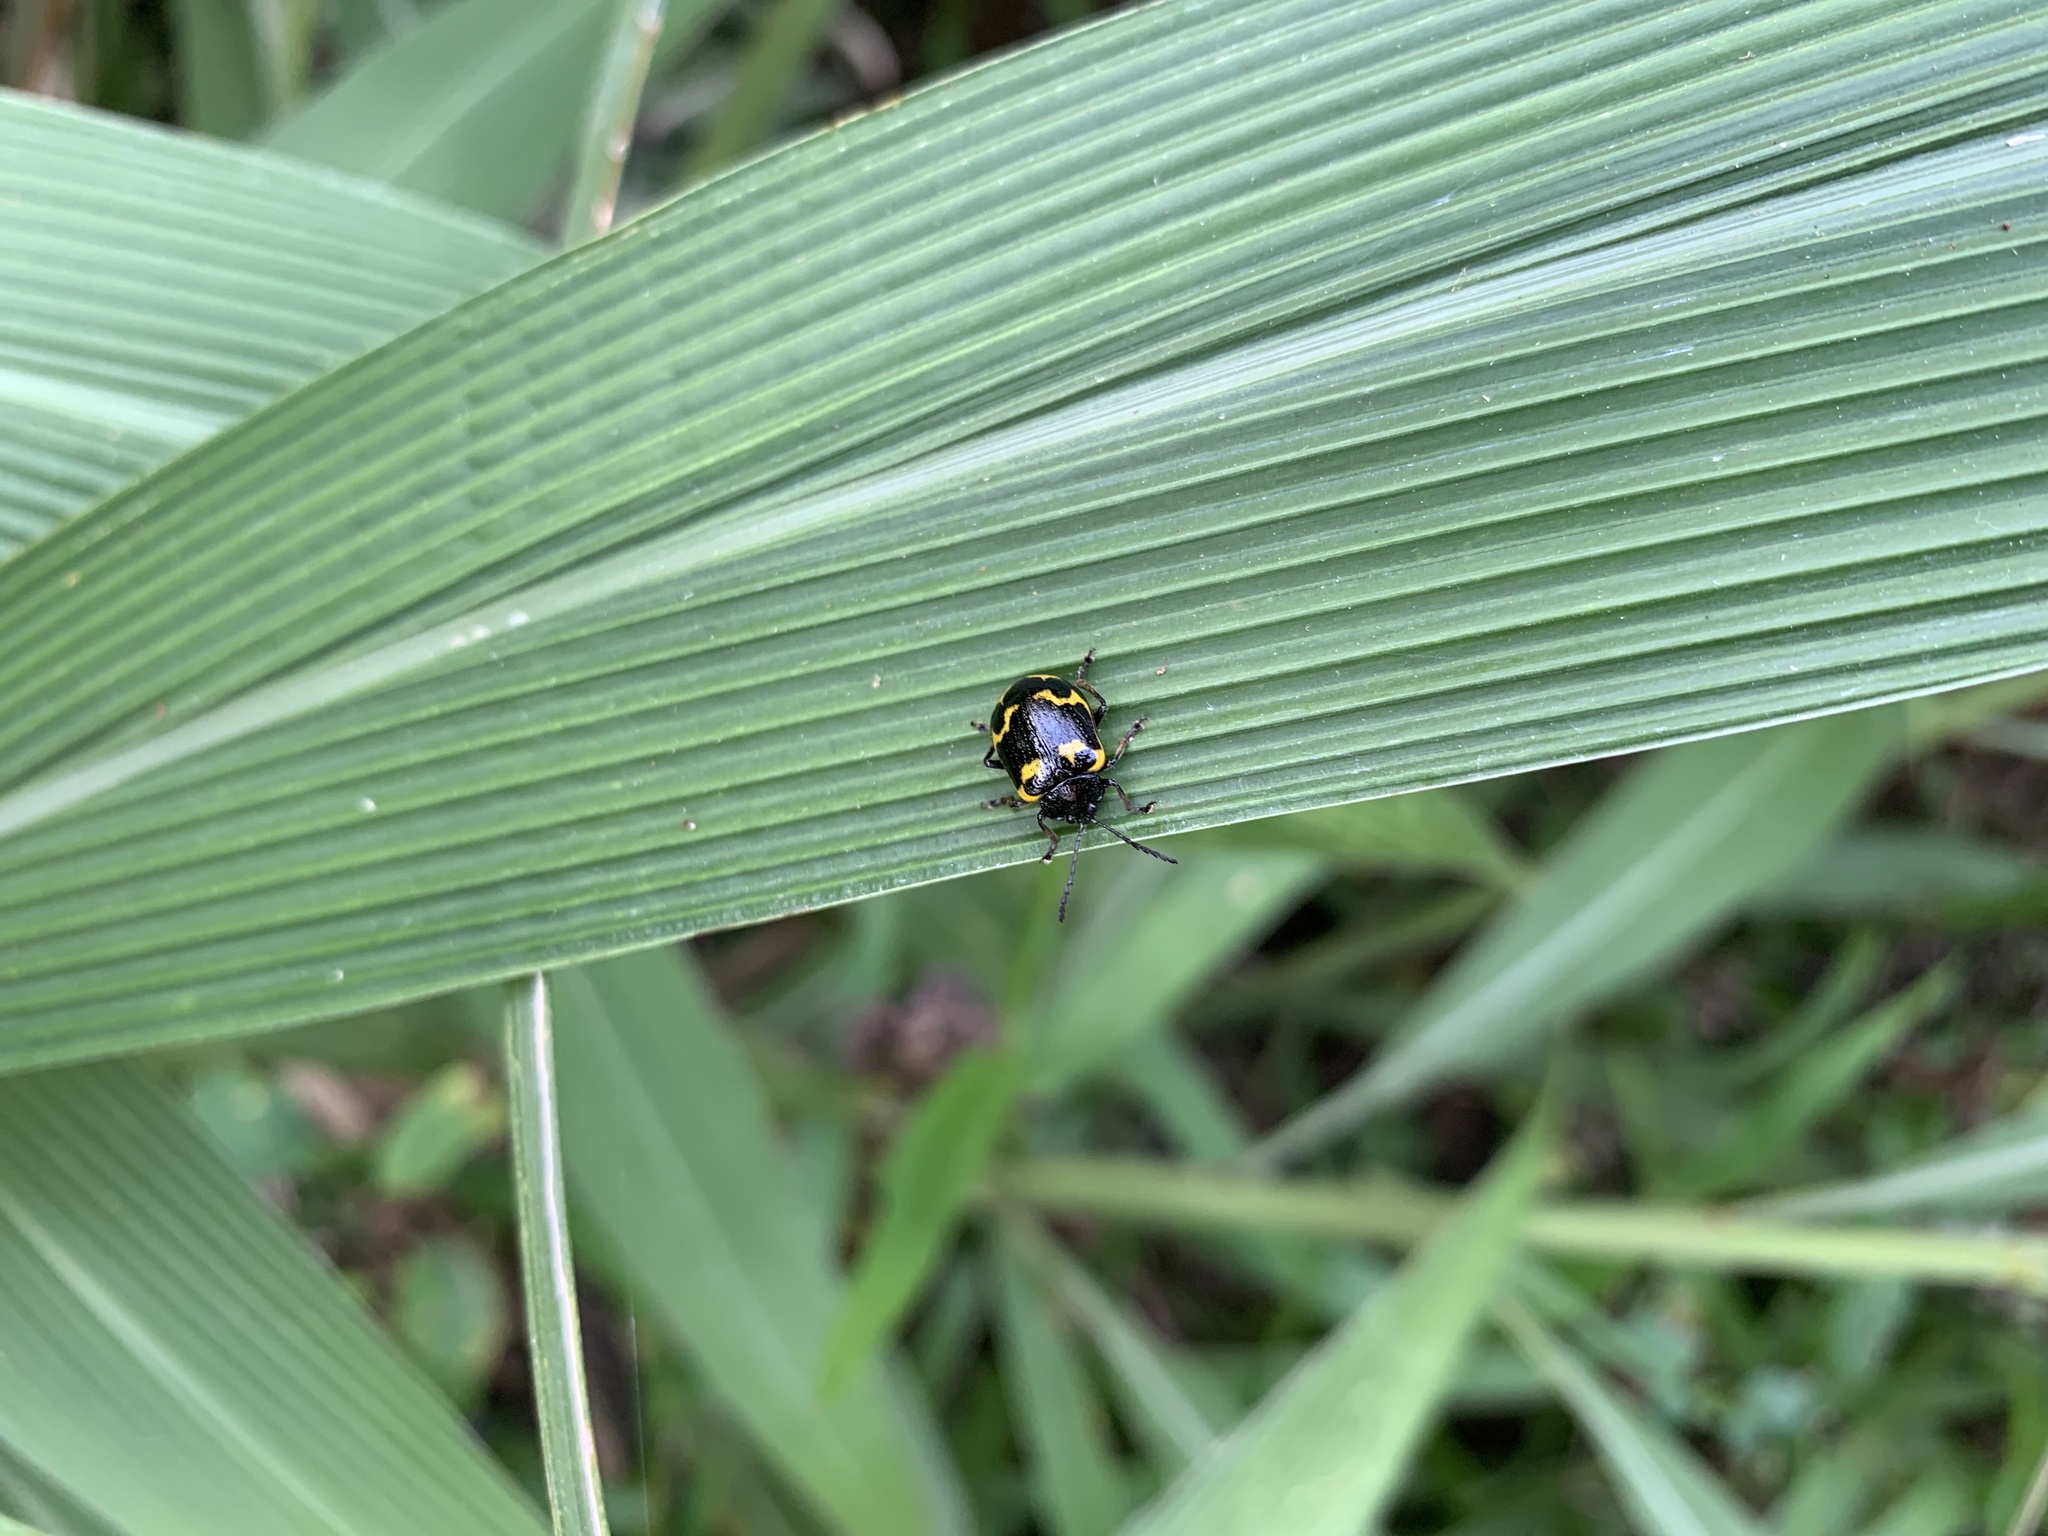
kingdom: Animalia
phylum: Arthropoda
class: Insecta
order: Coleoptera
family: Chrysomelidae
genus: Gallerucida
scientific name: Gallerucida bifasciata
